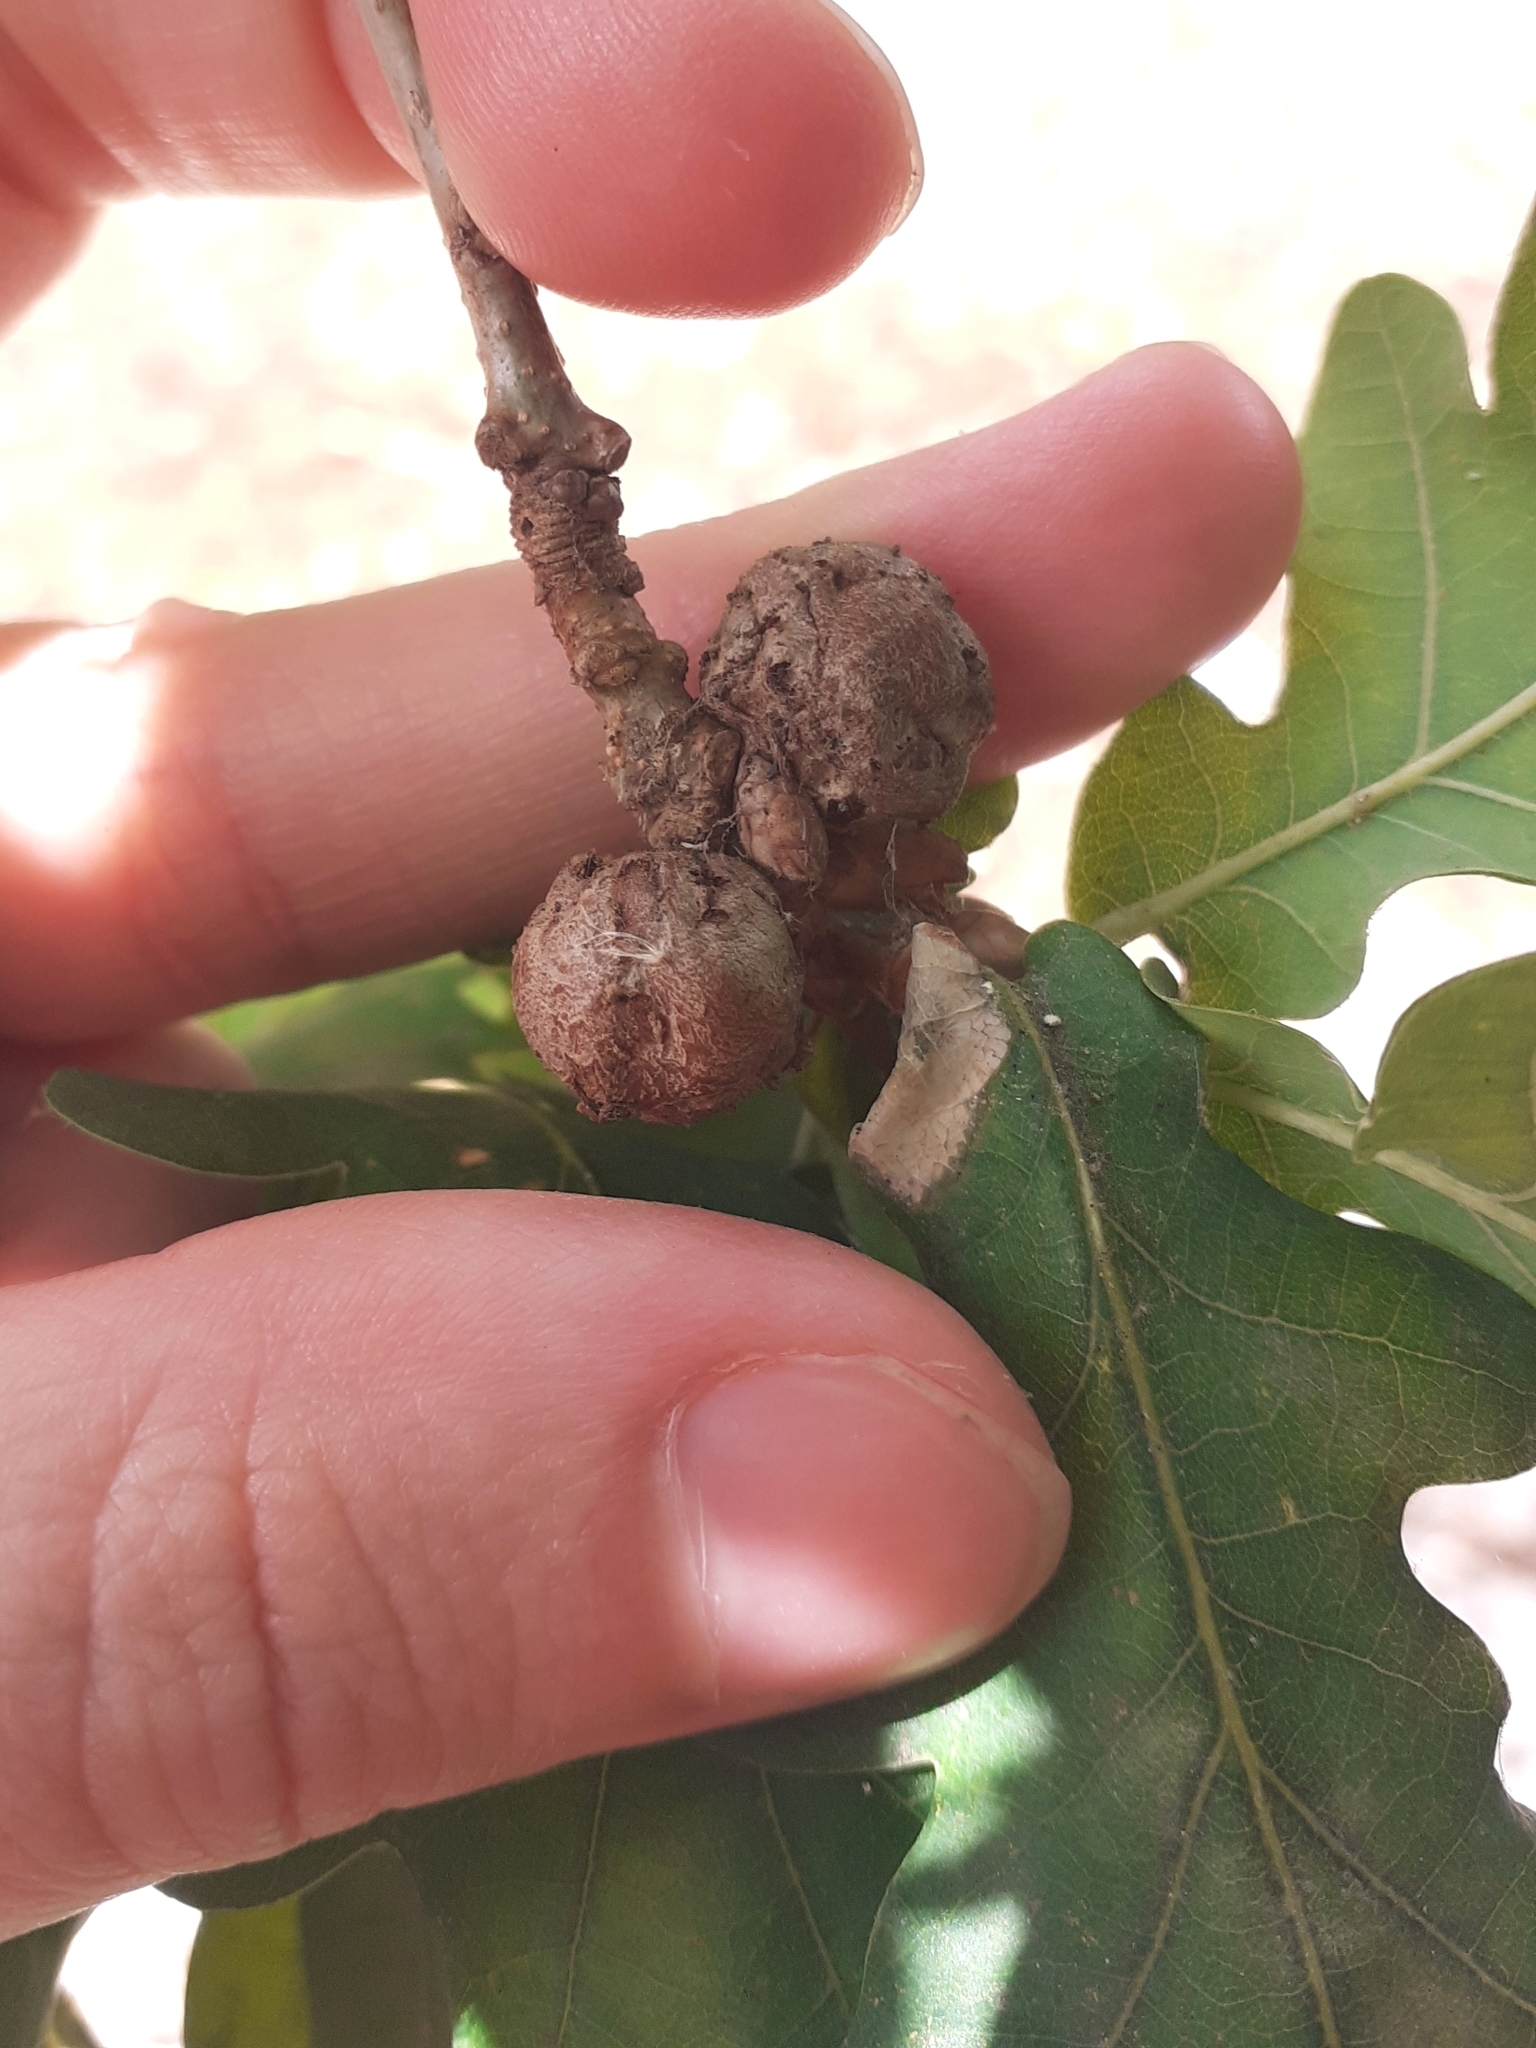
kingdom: Animalia
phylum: Arthropoda
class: Insecta
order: Hymenoptera
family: Cynipidae
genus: Andricus
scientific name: Andricus lignicolus
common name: Cola-nut gall
